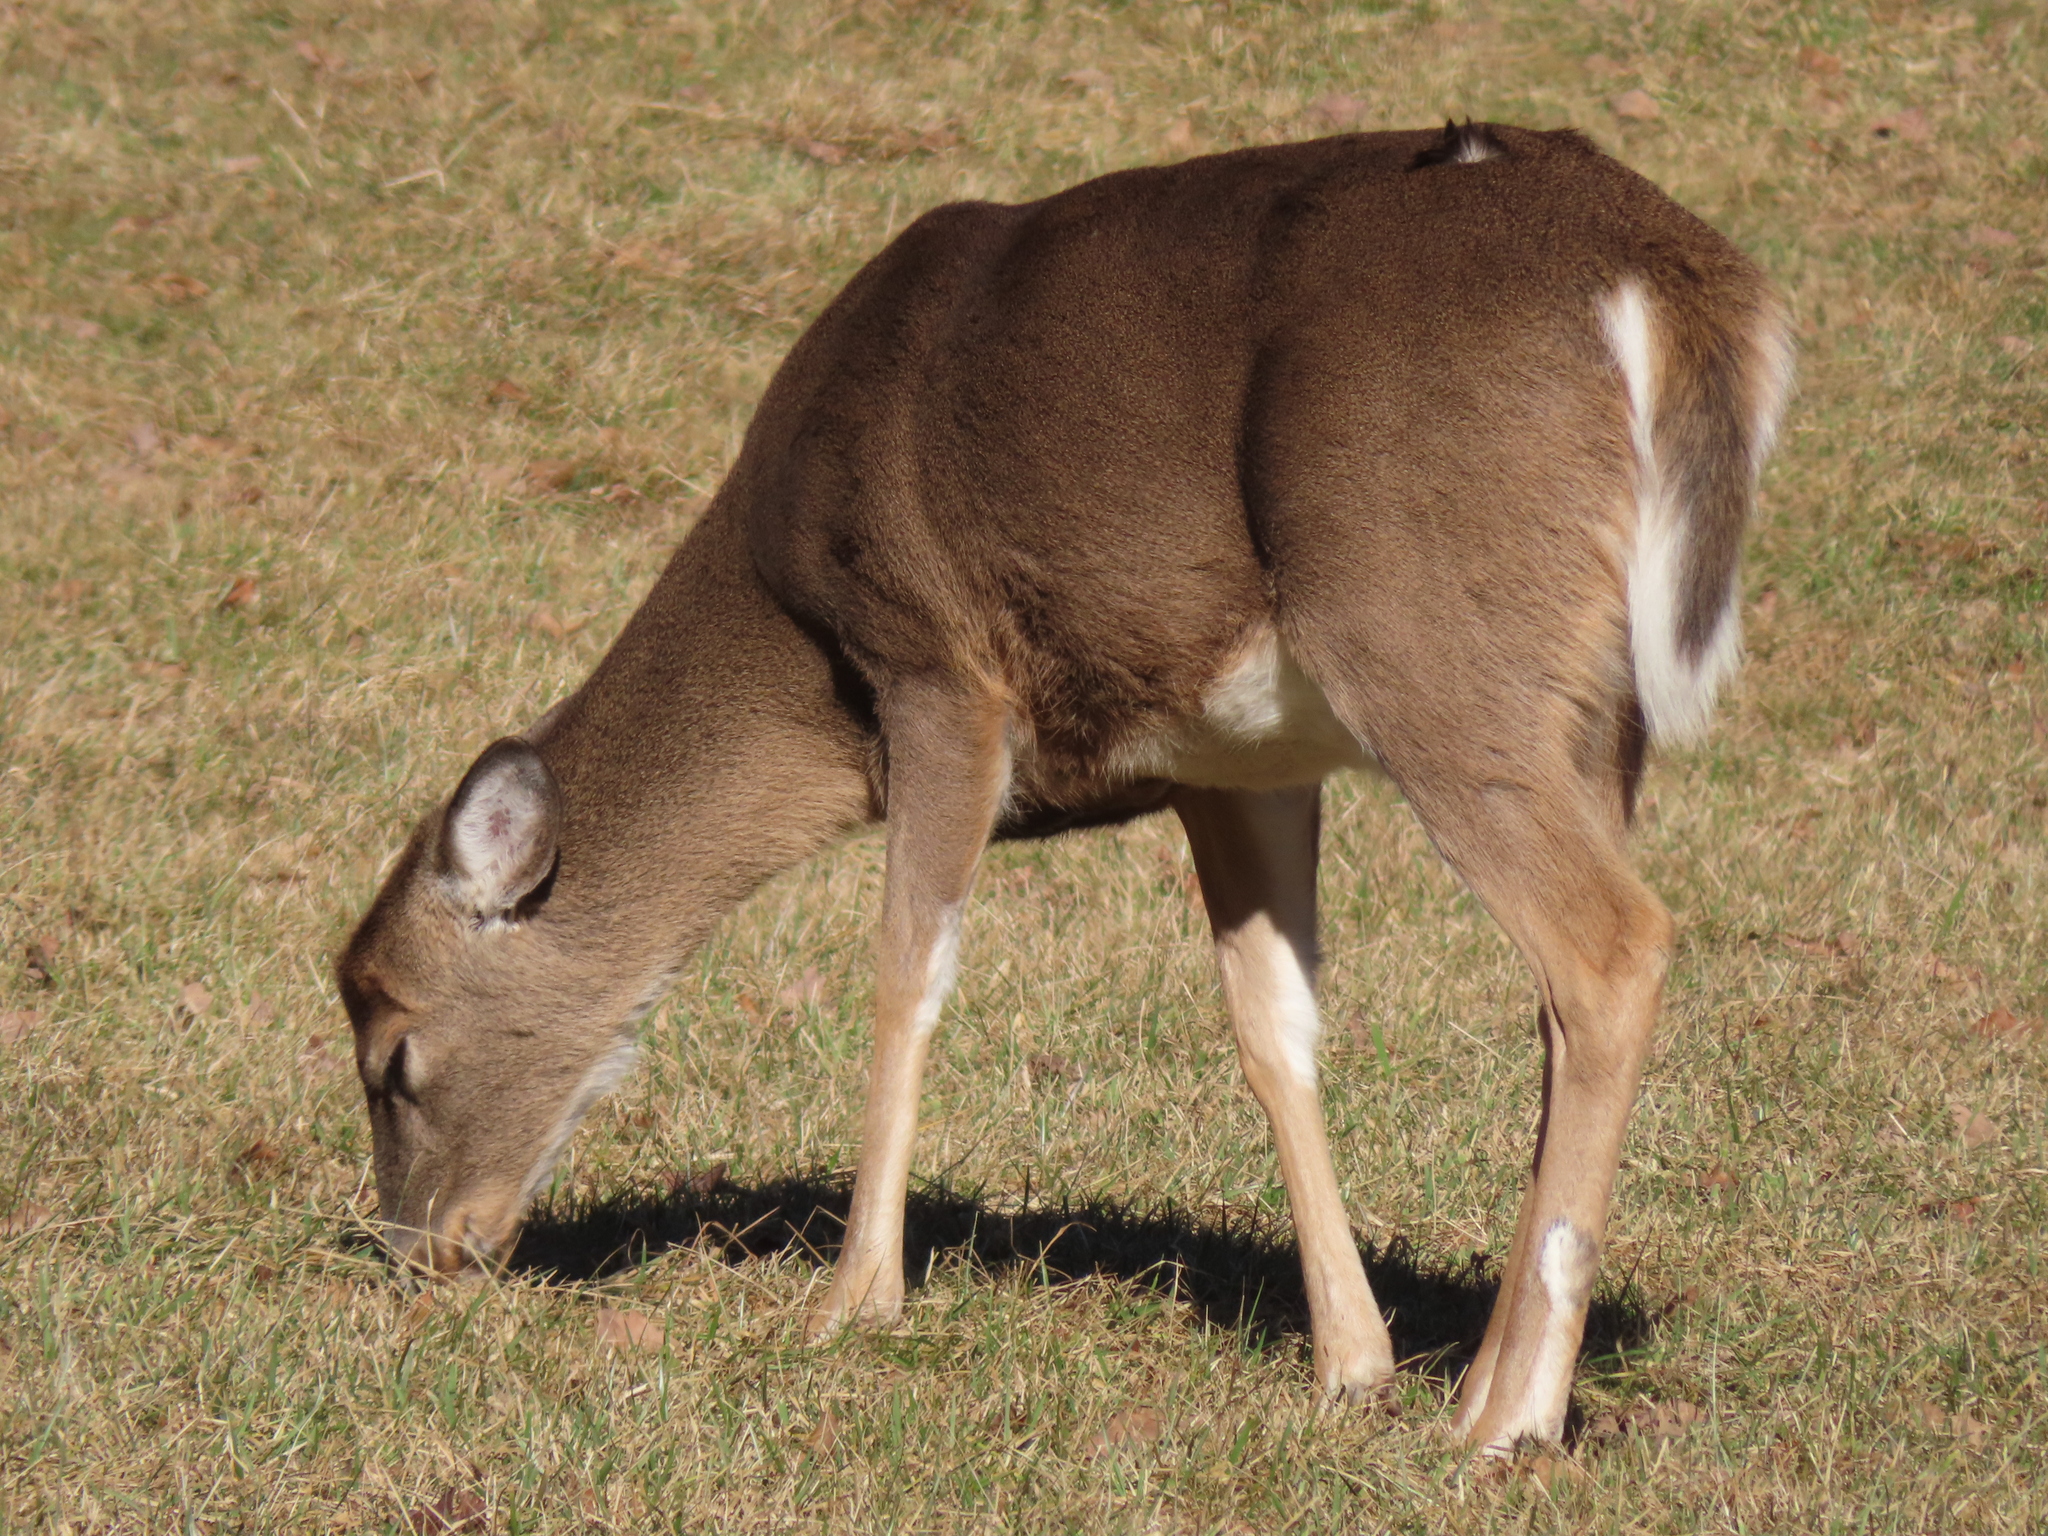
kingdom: Animalia
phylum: Chordata
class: Mammalia
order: Artiodactyla
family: Cervidae
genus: Odocoileus
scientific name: Odocoileus virginianus
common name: White-tailed deer
